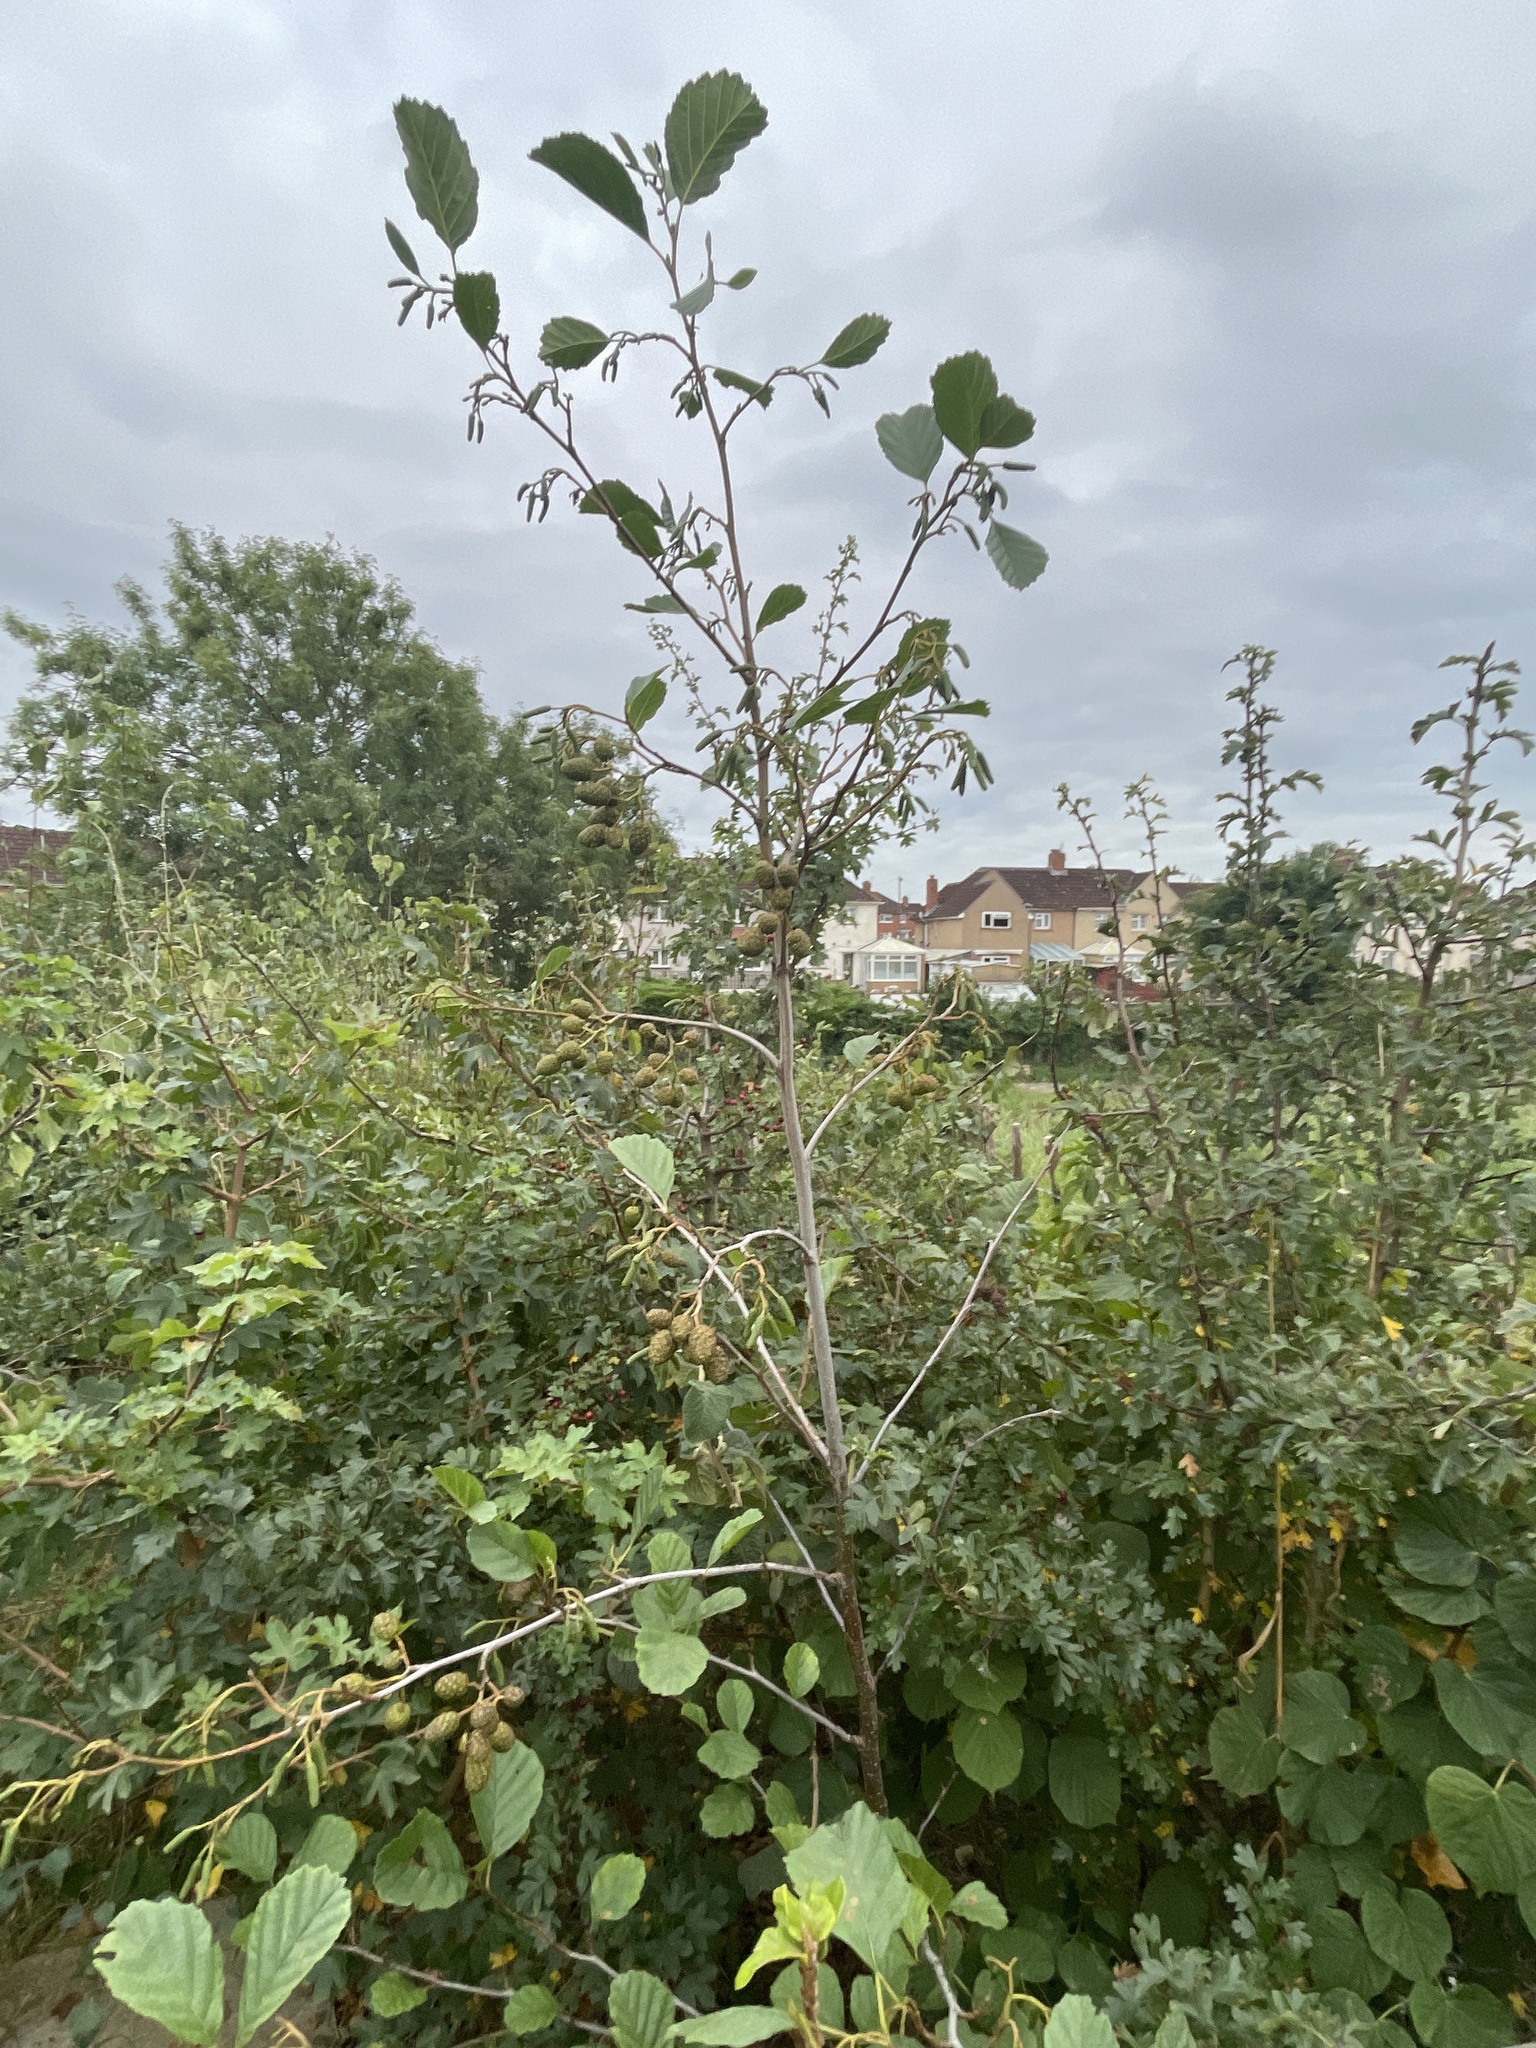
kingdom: Plantae
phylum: Tracheophyta
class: Magnoliopsida
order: Fagales
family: Betulaceae
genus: Alnus
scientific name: Alnus glutinosa
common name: Black alder
